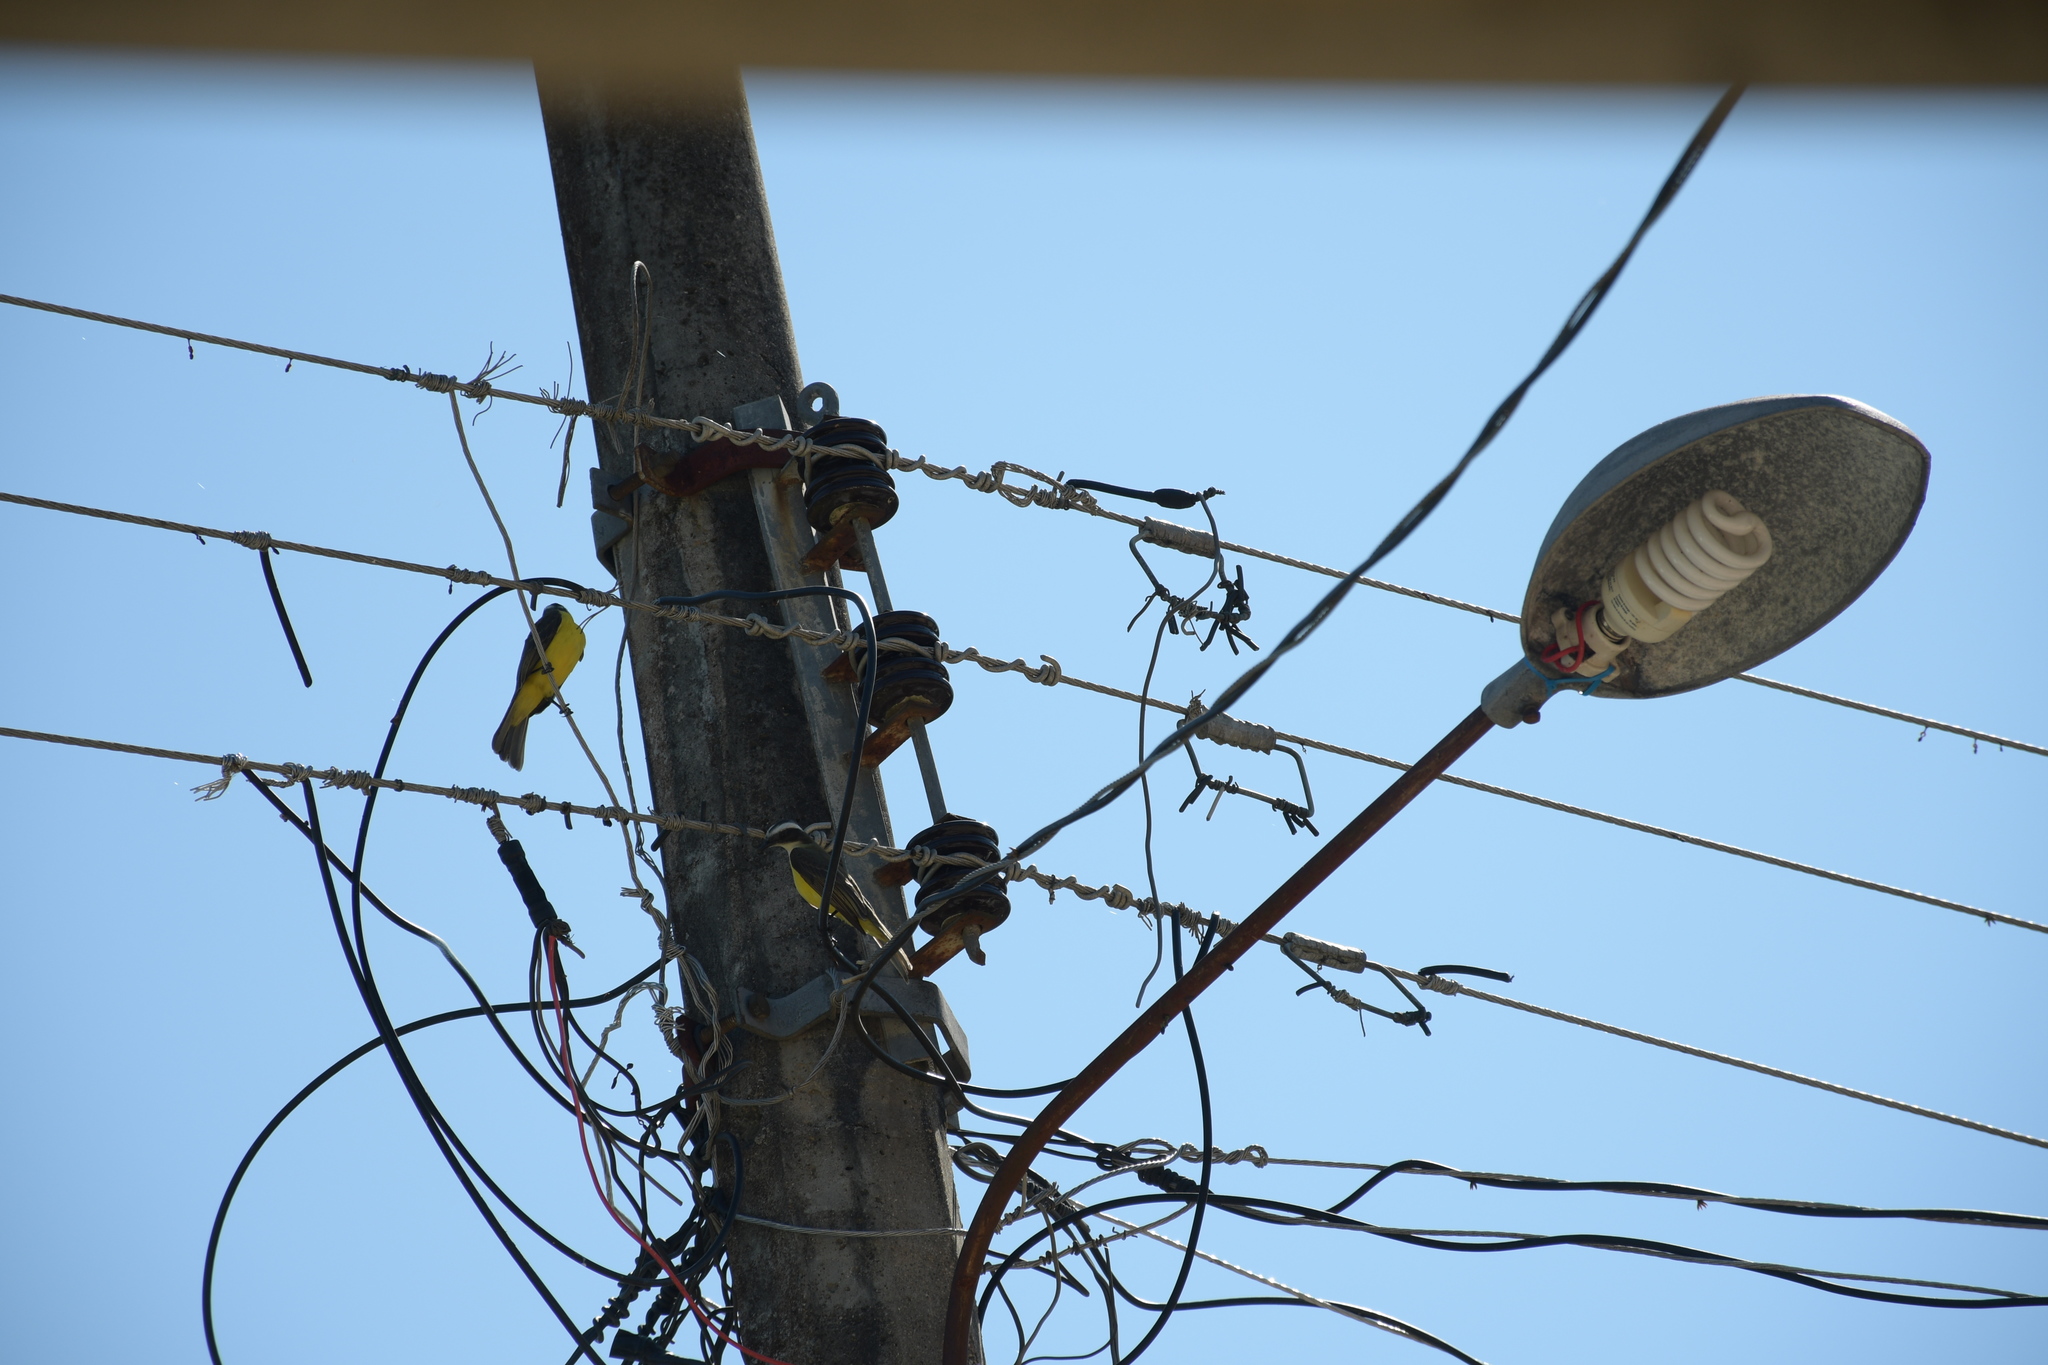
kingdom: Animalia
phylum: Chordata
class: Aves
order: Passeriformes
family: Tyrannidae
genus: Myiozetetes
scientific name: Myiozetetes similis
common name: Social flycatcher
